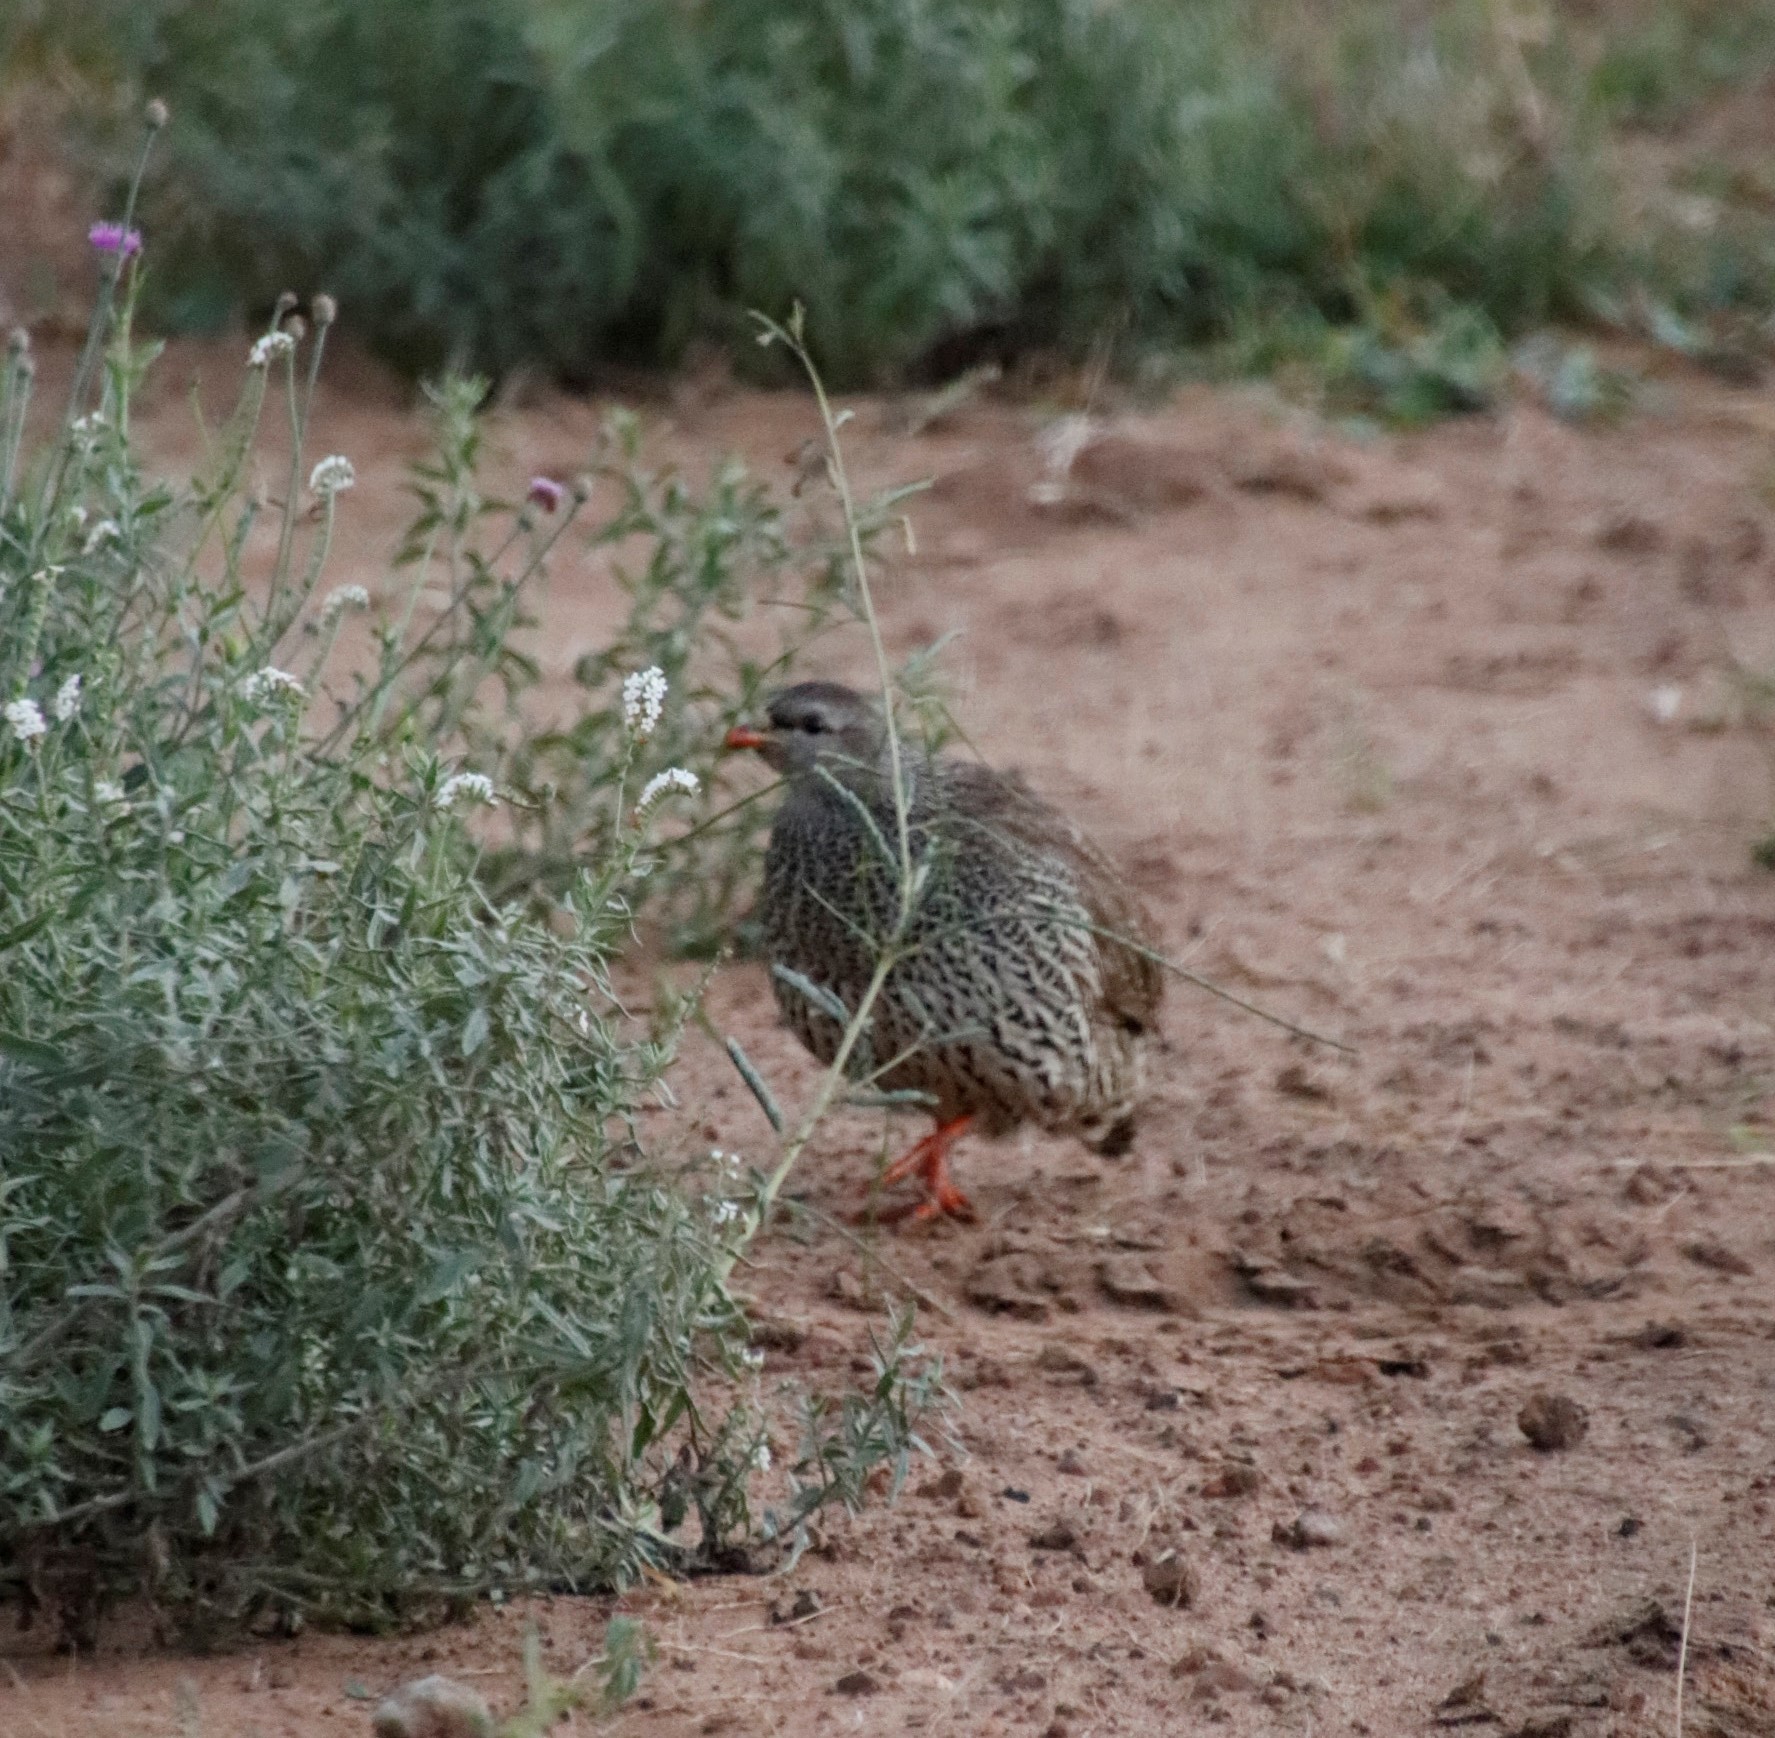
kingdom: Animalia
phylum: Chordata
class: Aves
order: Galliformes
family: Phasianidae
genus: Pternistis
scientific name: Pternistis natalensis
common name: Natal spurfowl
